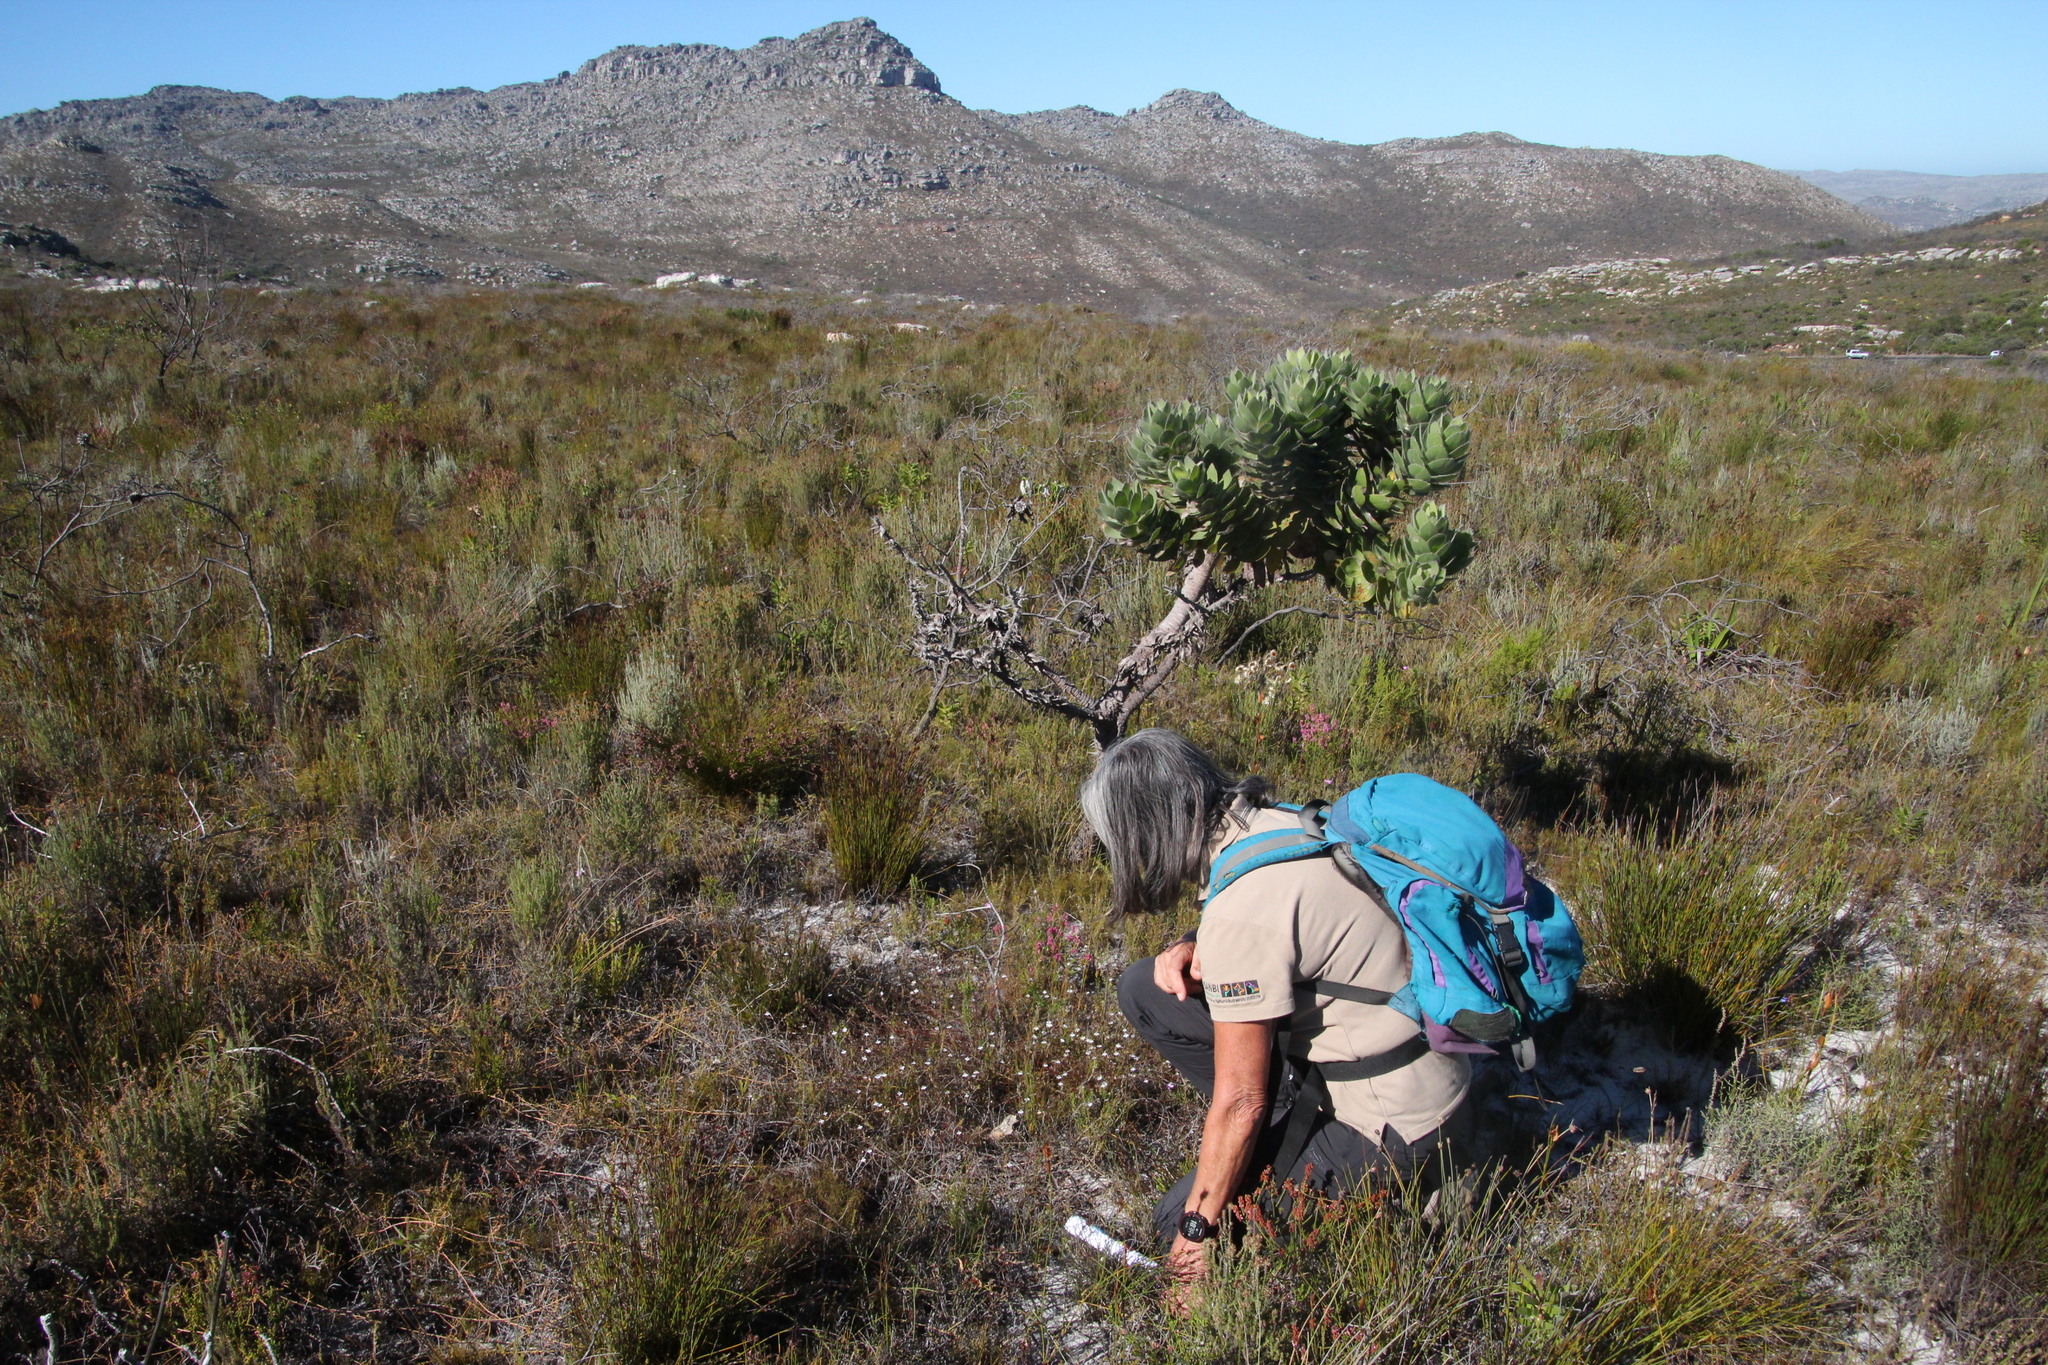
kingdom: Plantae
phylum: Tracheophyta
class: Magnoliopsida
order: Proteales
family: Proteaceae
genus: Leucospermum
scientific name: Leucospermum conocarpodendron
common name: Tree pincushion
